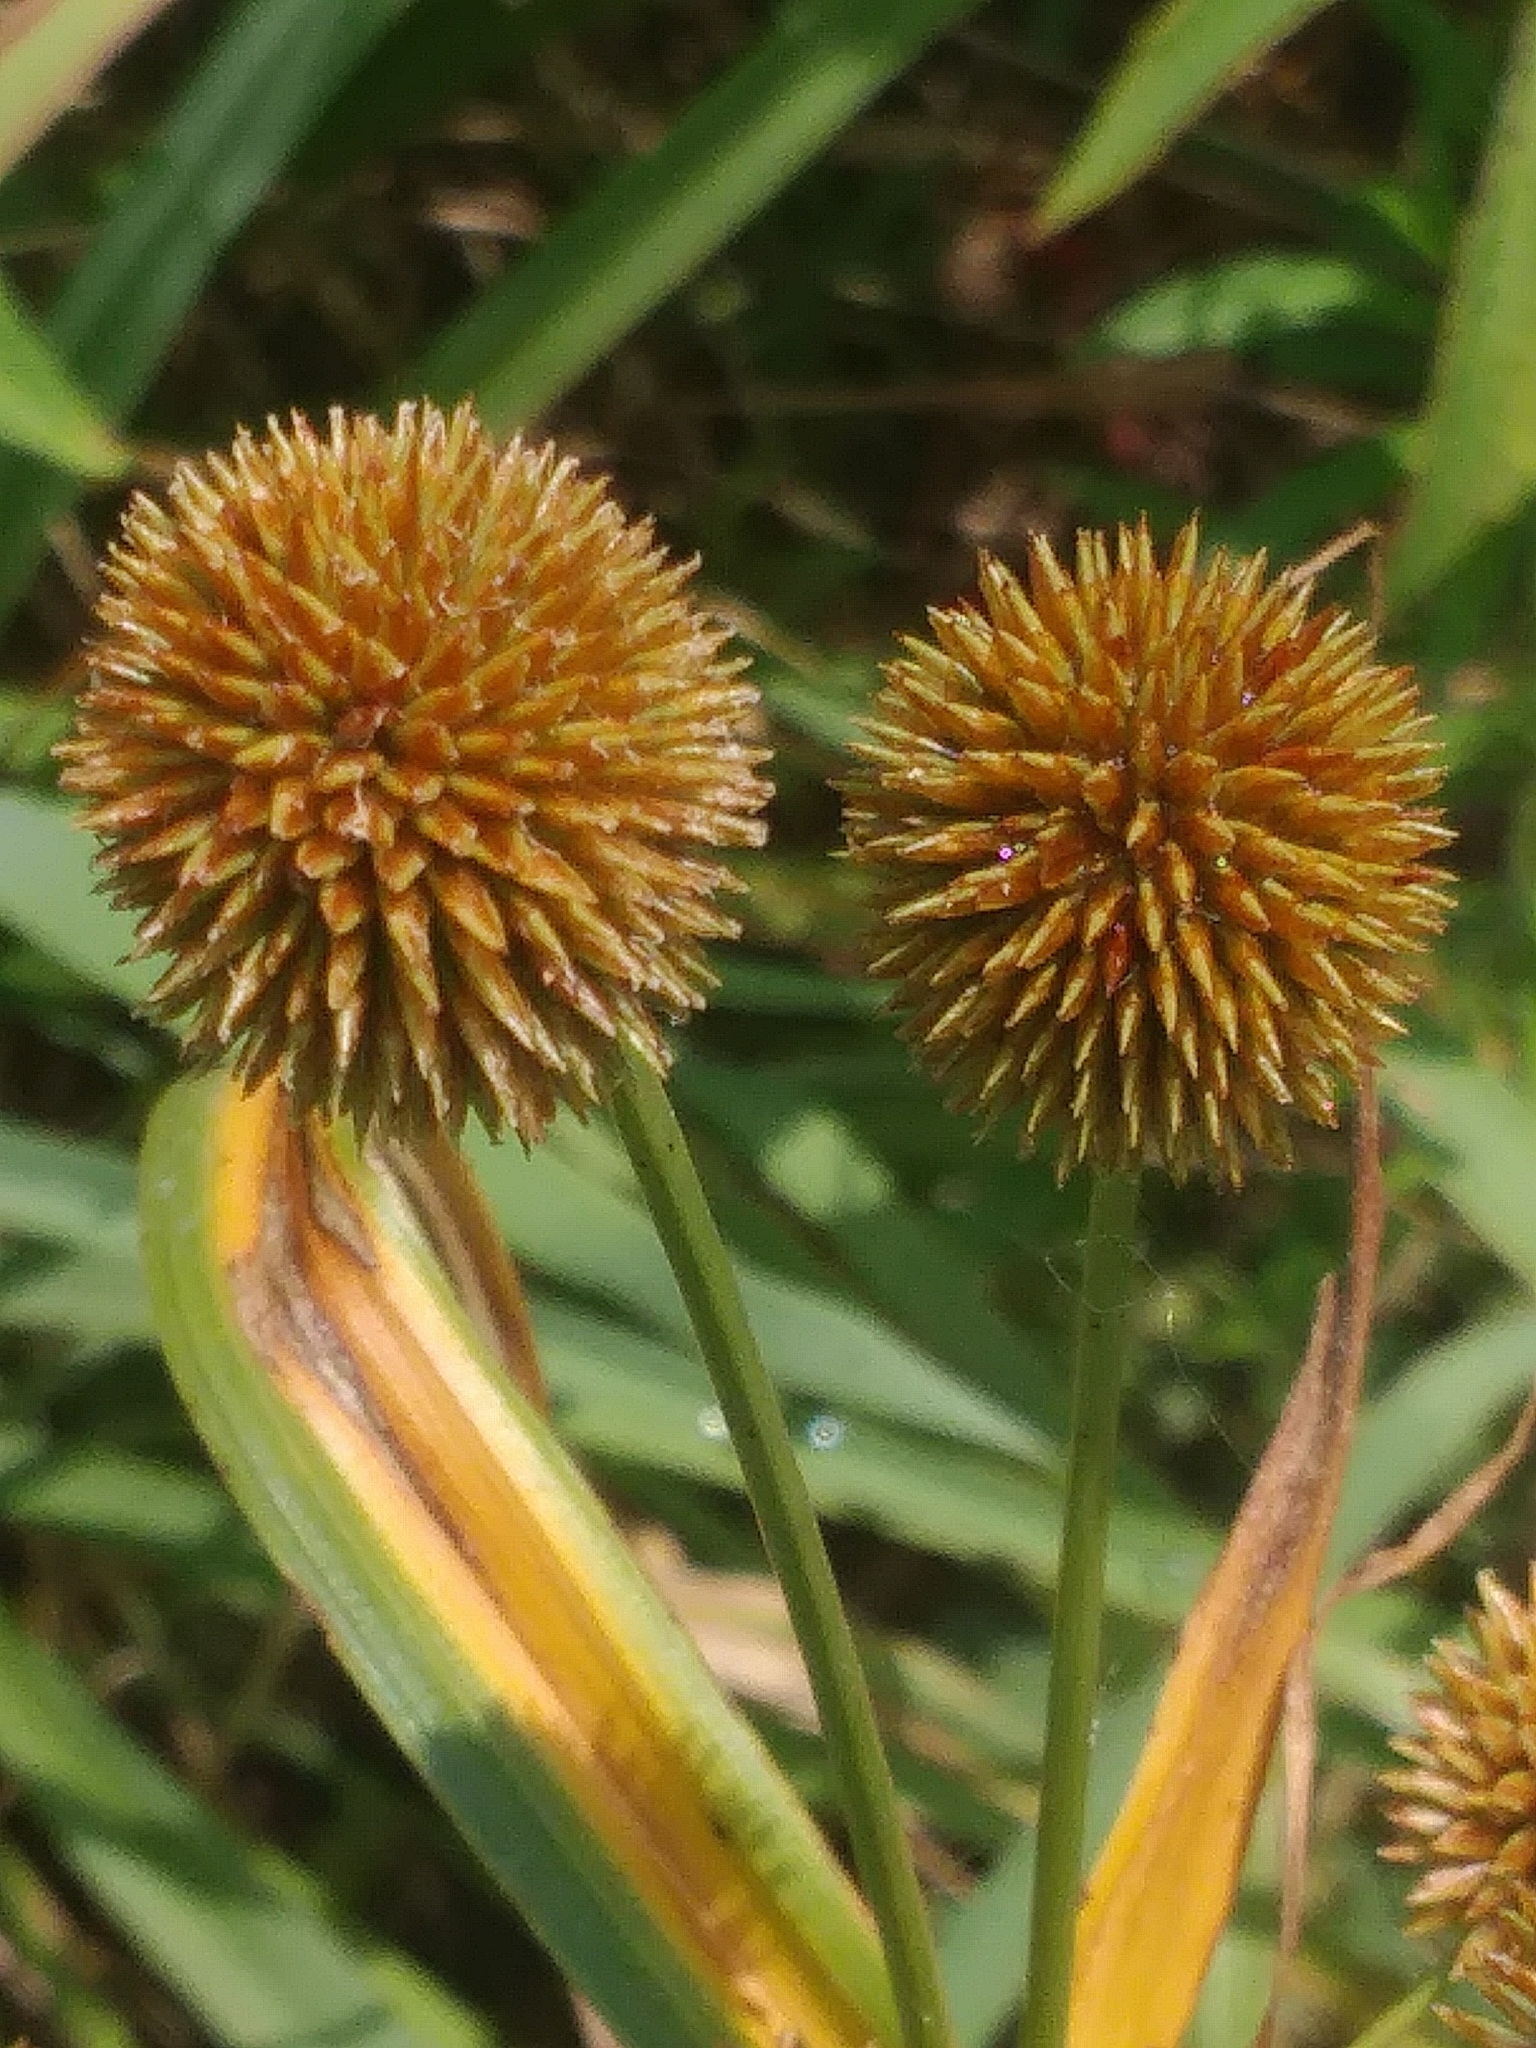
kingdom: Plantae
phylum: Tracheophyta
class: Liliopsida
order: Poales
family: Cyperaceae
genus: Cyperus
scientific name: Cyperus echinatus
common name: Teasel sedge
